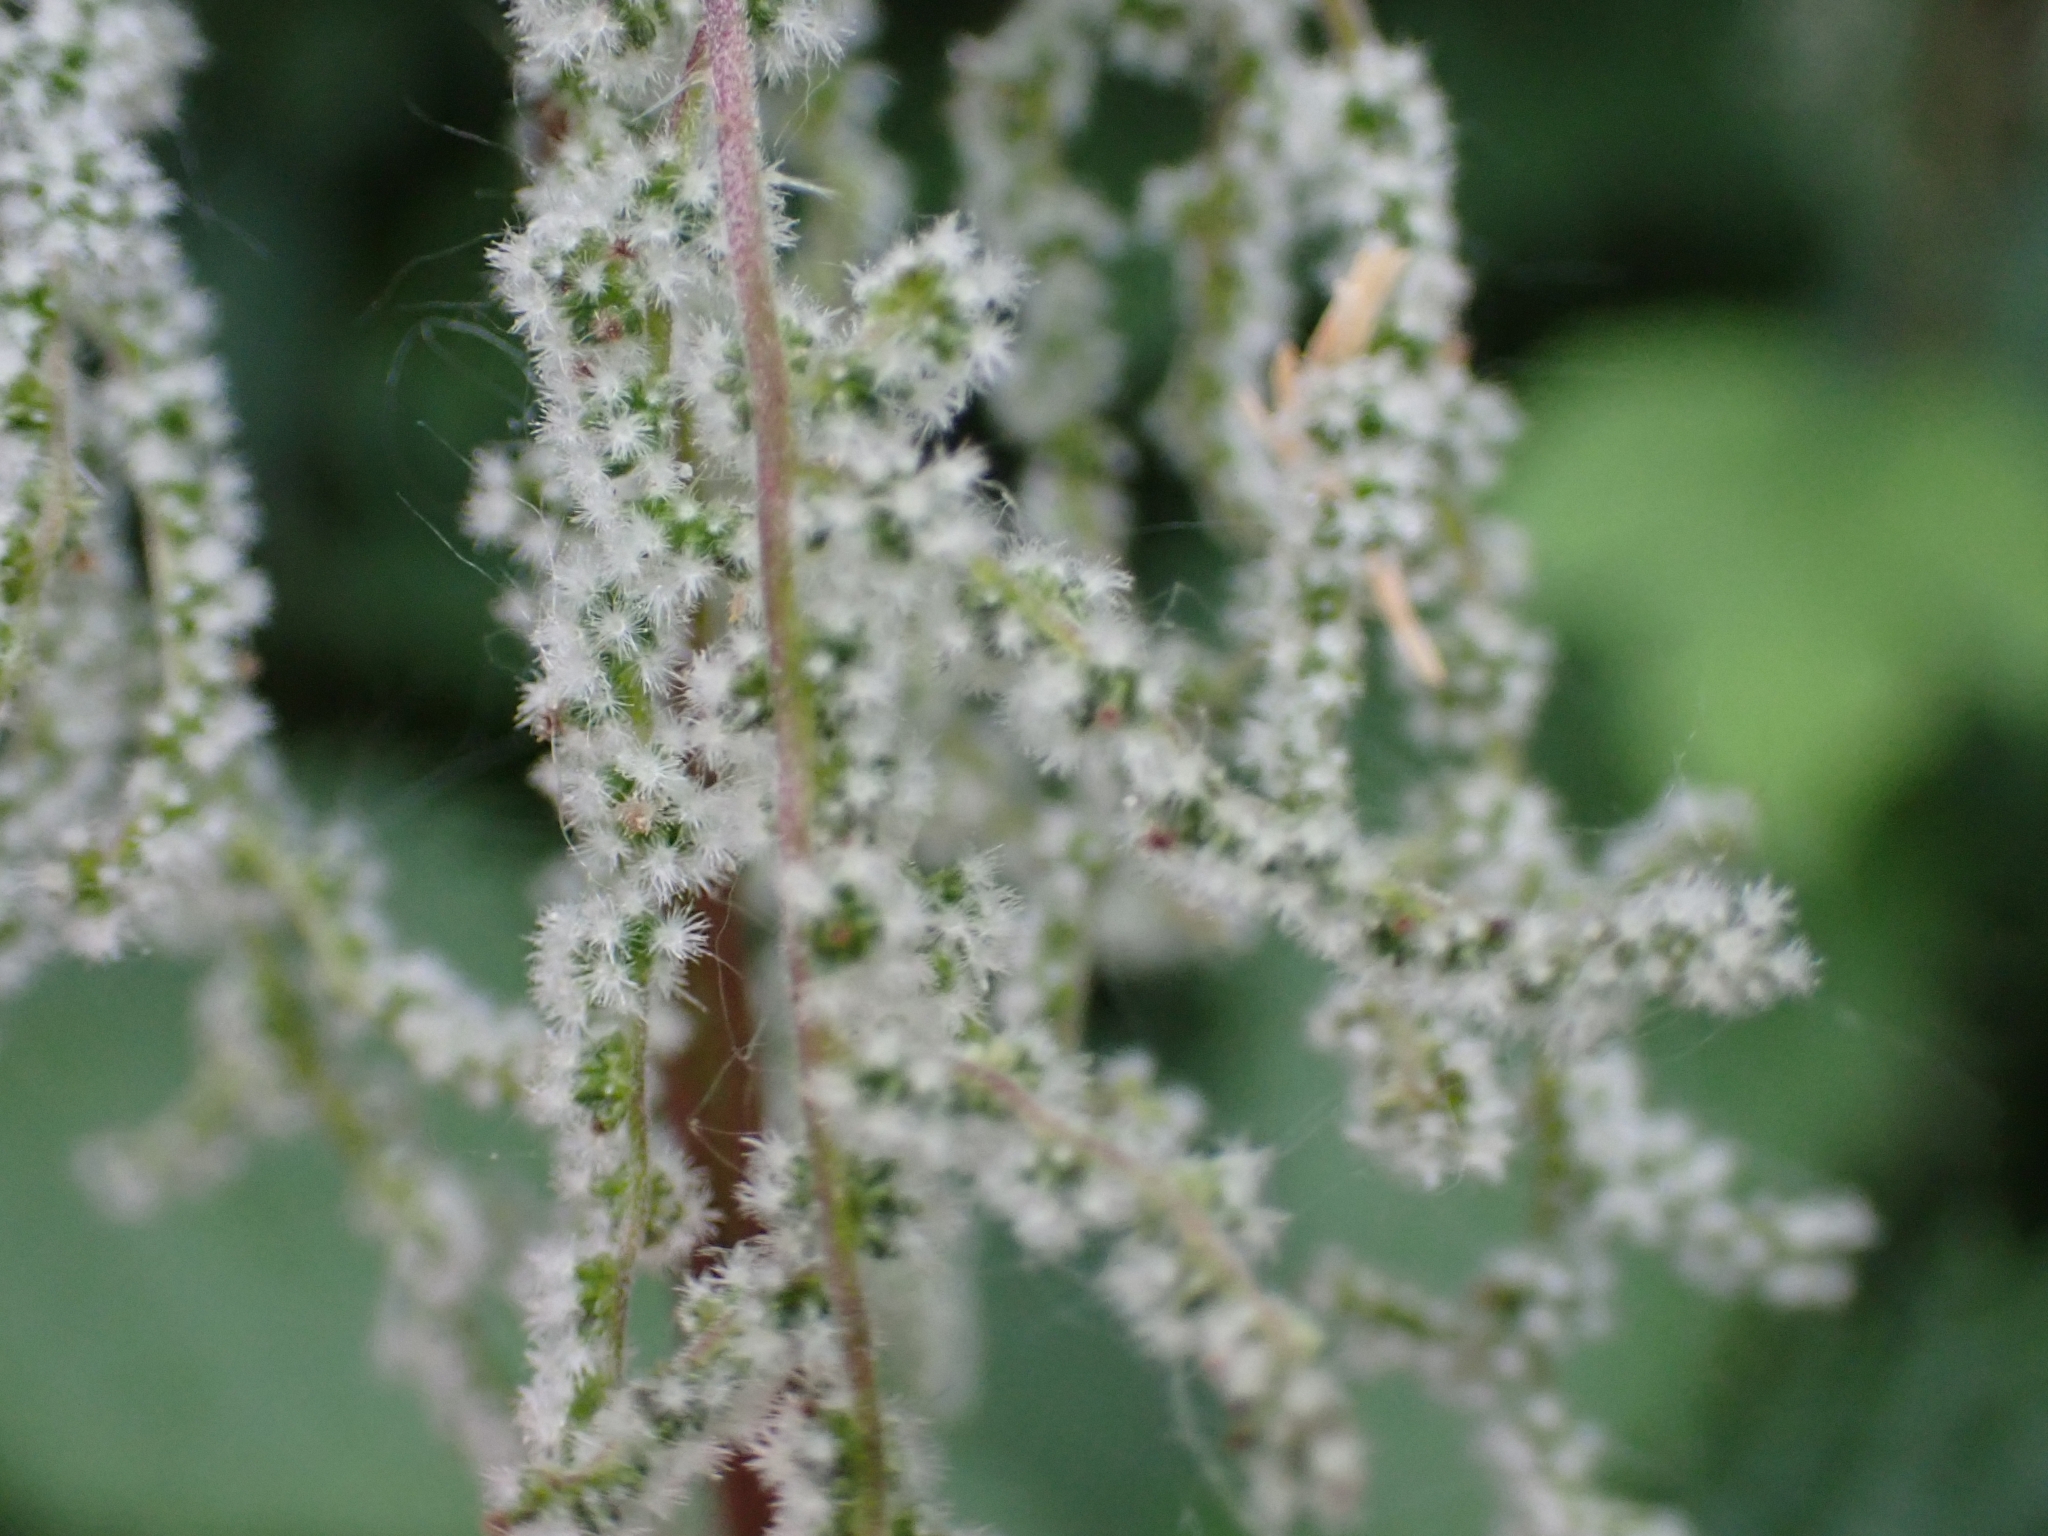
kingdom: Plantae
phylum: Tracheophyta
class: Magnoliopsida
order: Rosales
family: Urticaceae
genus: Urtica
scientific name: Urtica dioica
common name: Common nettle
